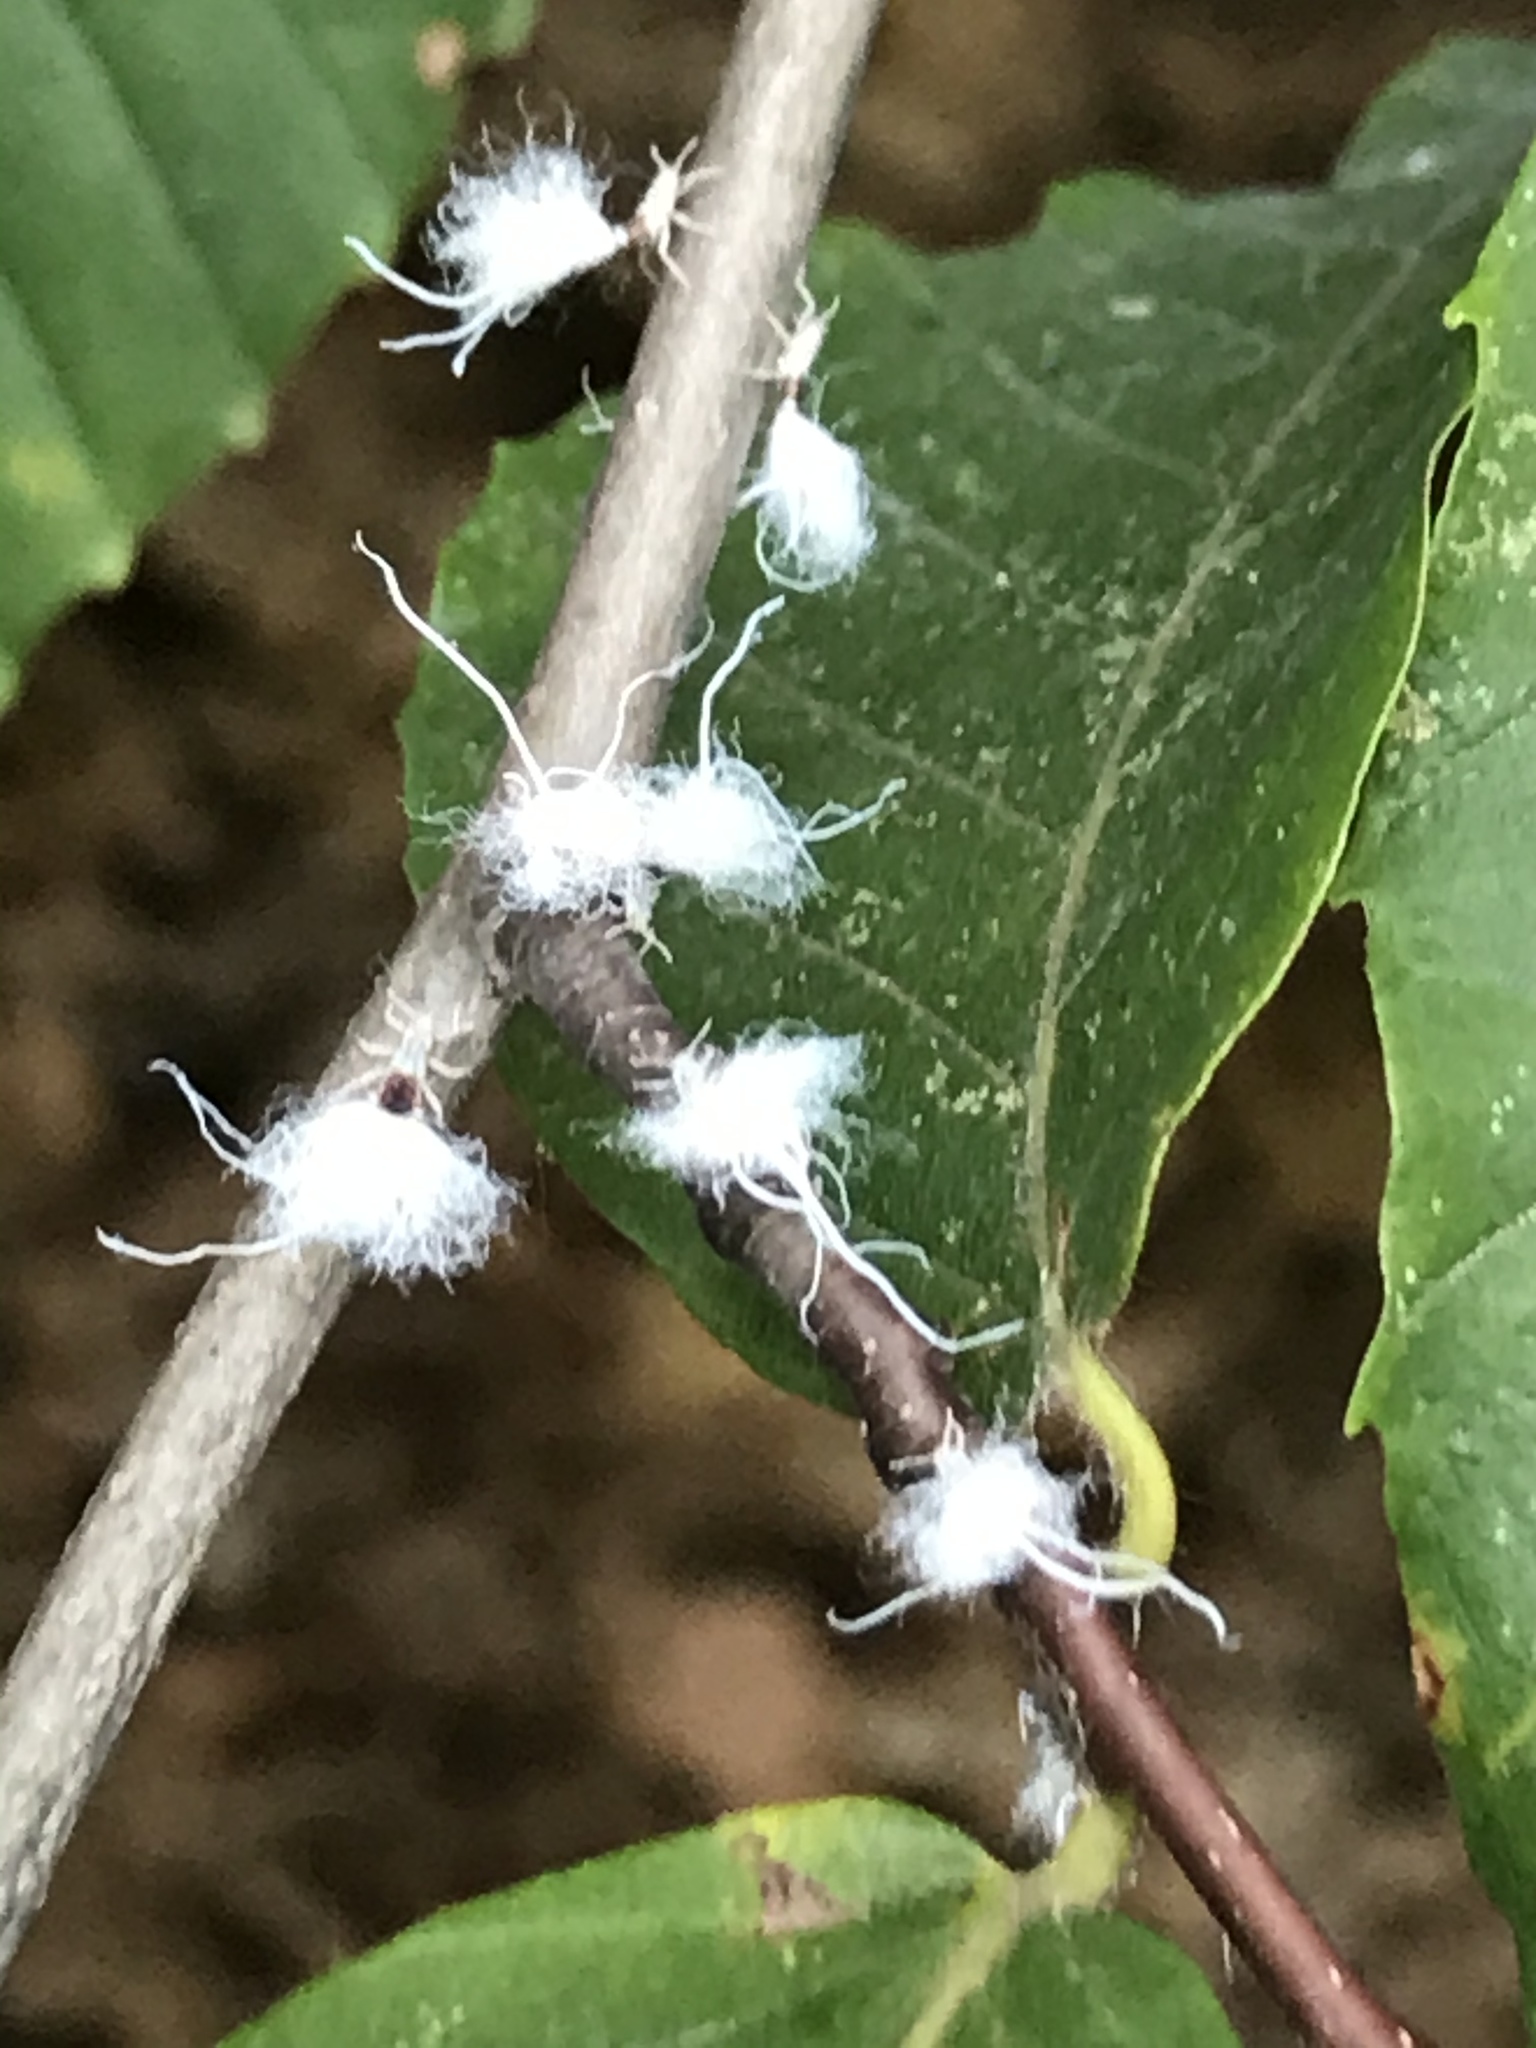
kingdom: Animalia
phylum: Arthropoda
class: Insecta
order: Hemiptera
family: Aphididae
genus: Grylloprociphilus
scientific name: Grylloprociphilus imbricator
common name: Beech blight aphid
